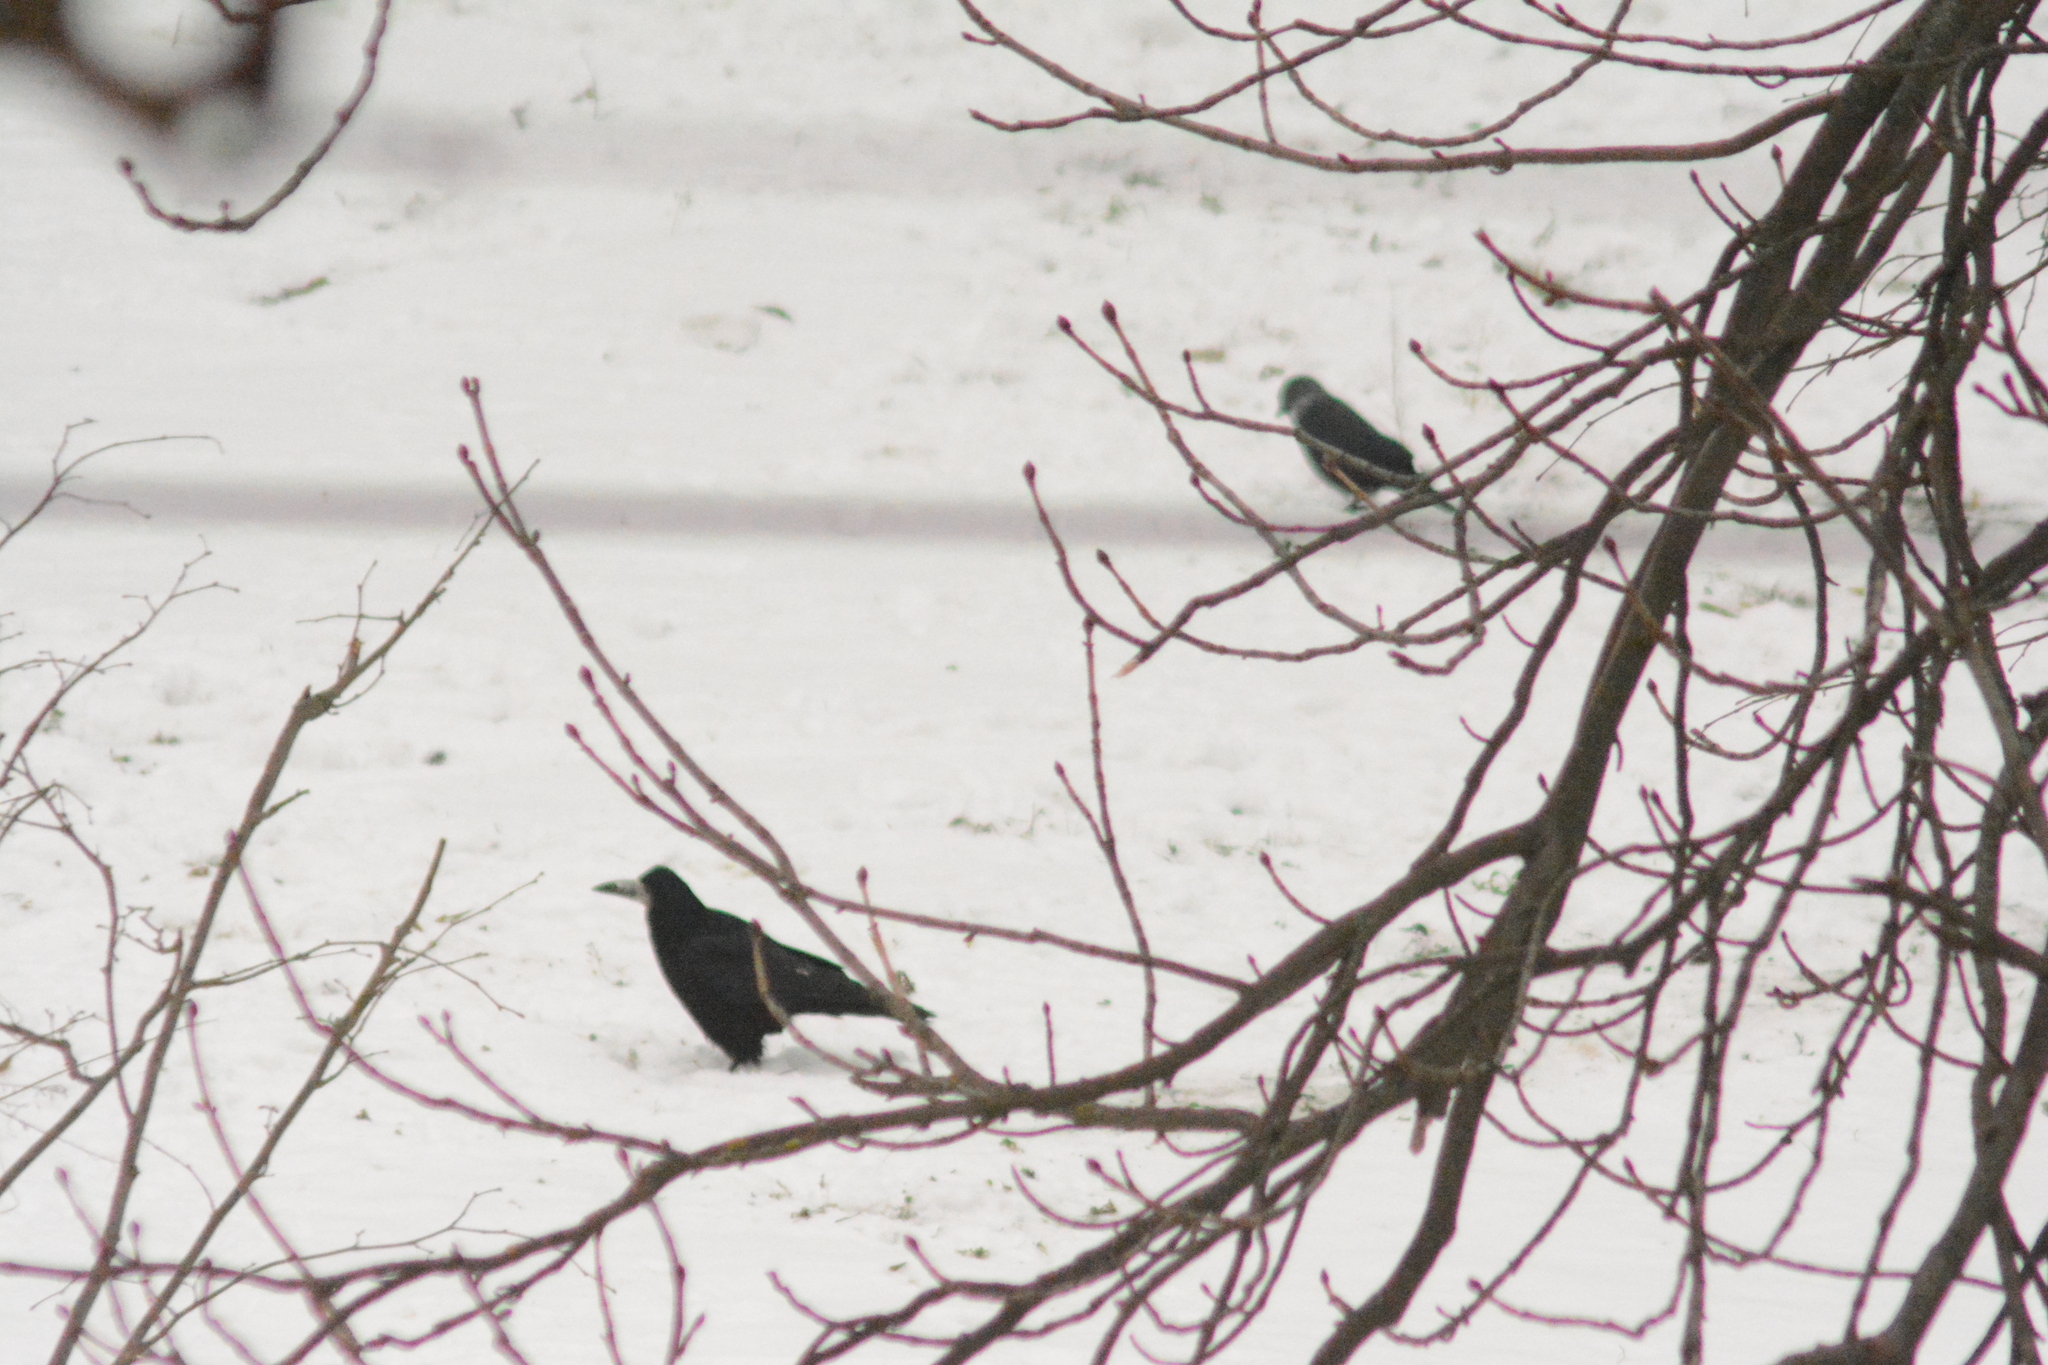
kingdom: Animalia
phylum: Chordata
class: Aves
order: Passeriformes
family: Corvidae
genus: Corvus
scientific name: Corvus frugilegus
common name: Rook
